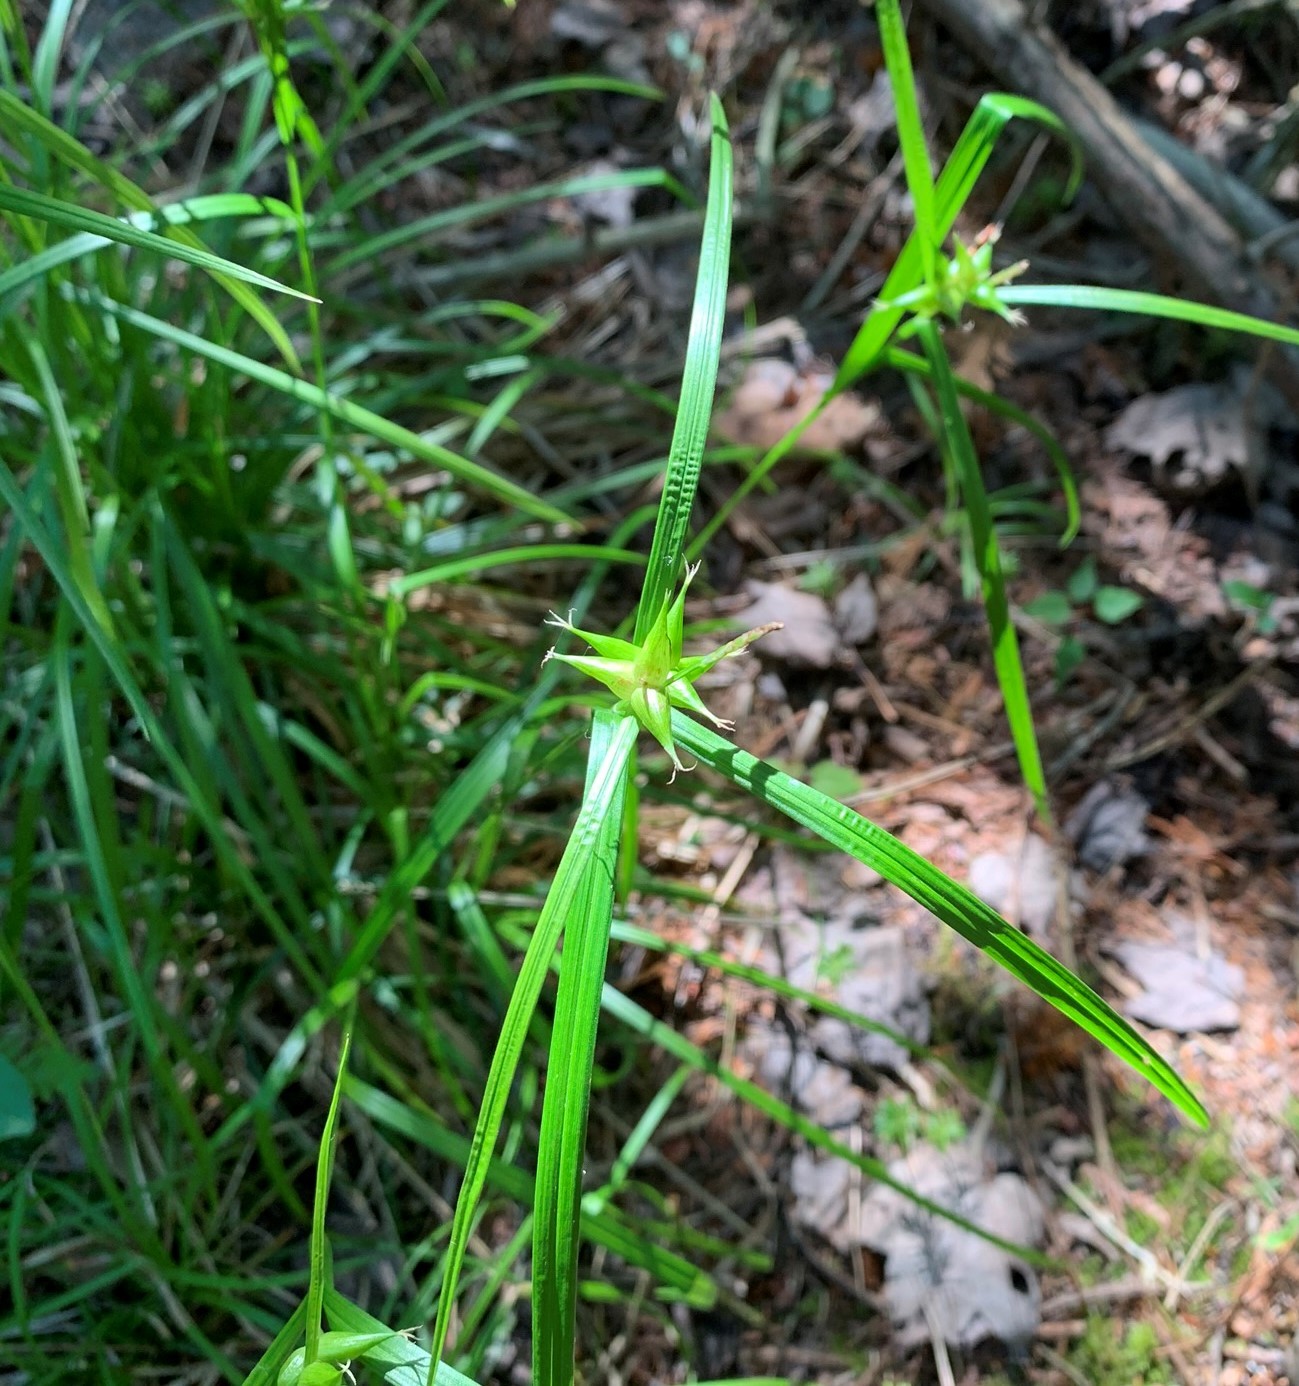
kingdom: Plantae
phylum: Tracheophyta
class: Liliopsida
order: Poales
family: Cyperaceae
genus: Carex
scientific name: Carex intumescens
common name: Greater bladder sedge
